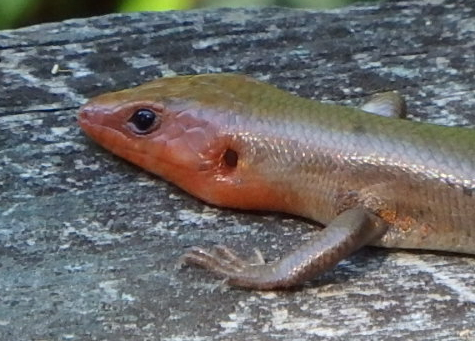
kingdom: Animalia
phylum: Chordata
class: Squamata
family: Scincidae
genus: Plestiodon
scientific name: Plestiodon fasciatus
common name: Five-lined skink
